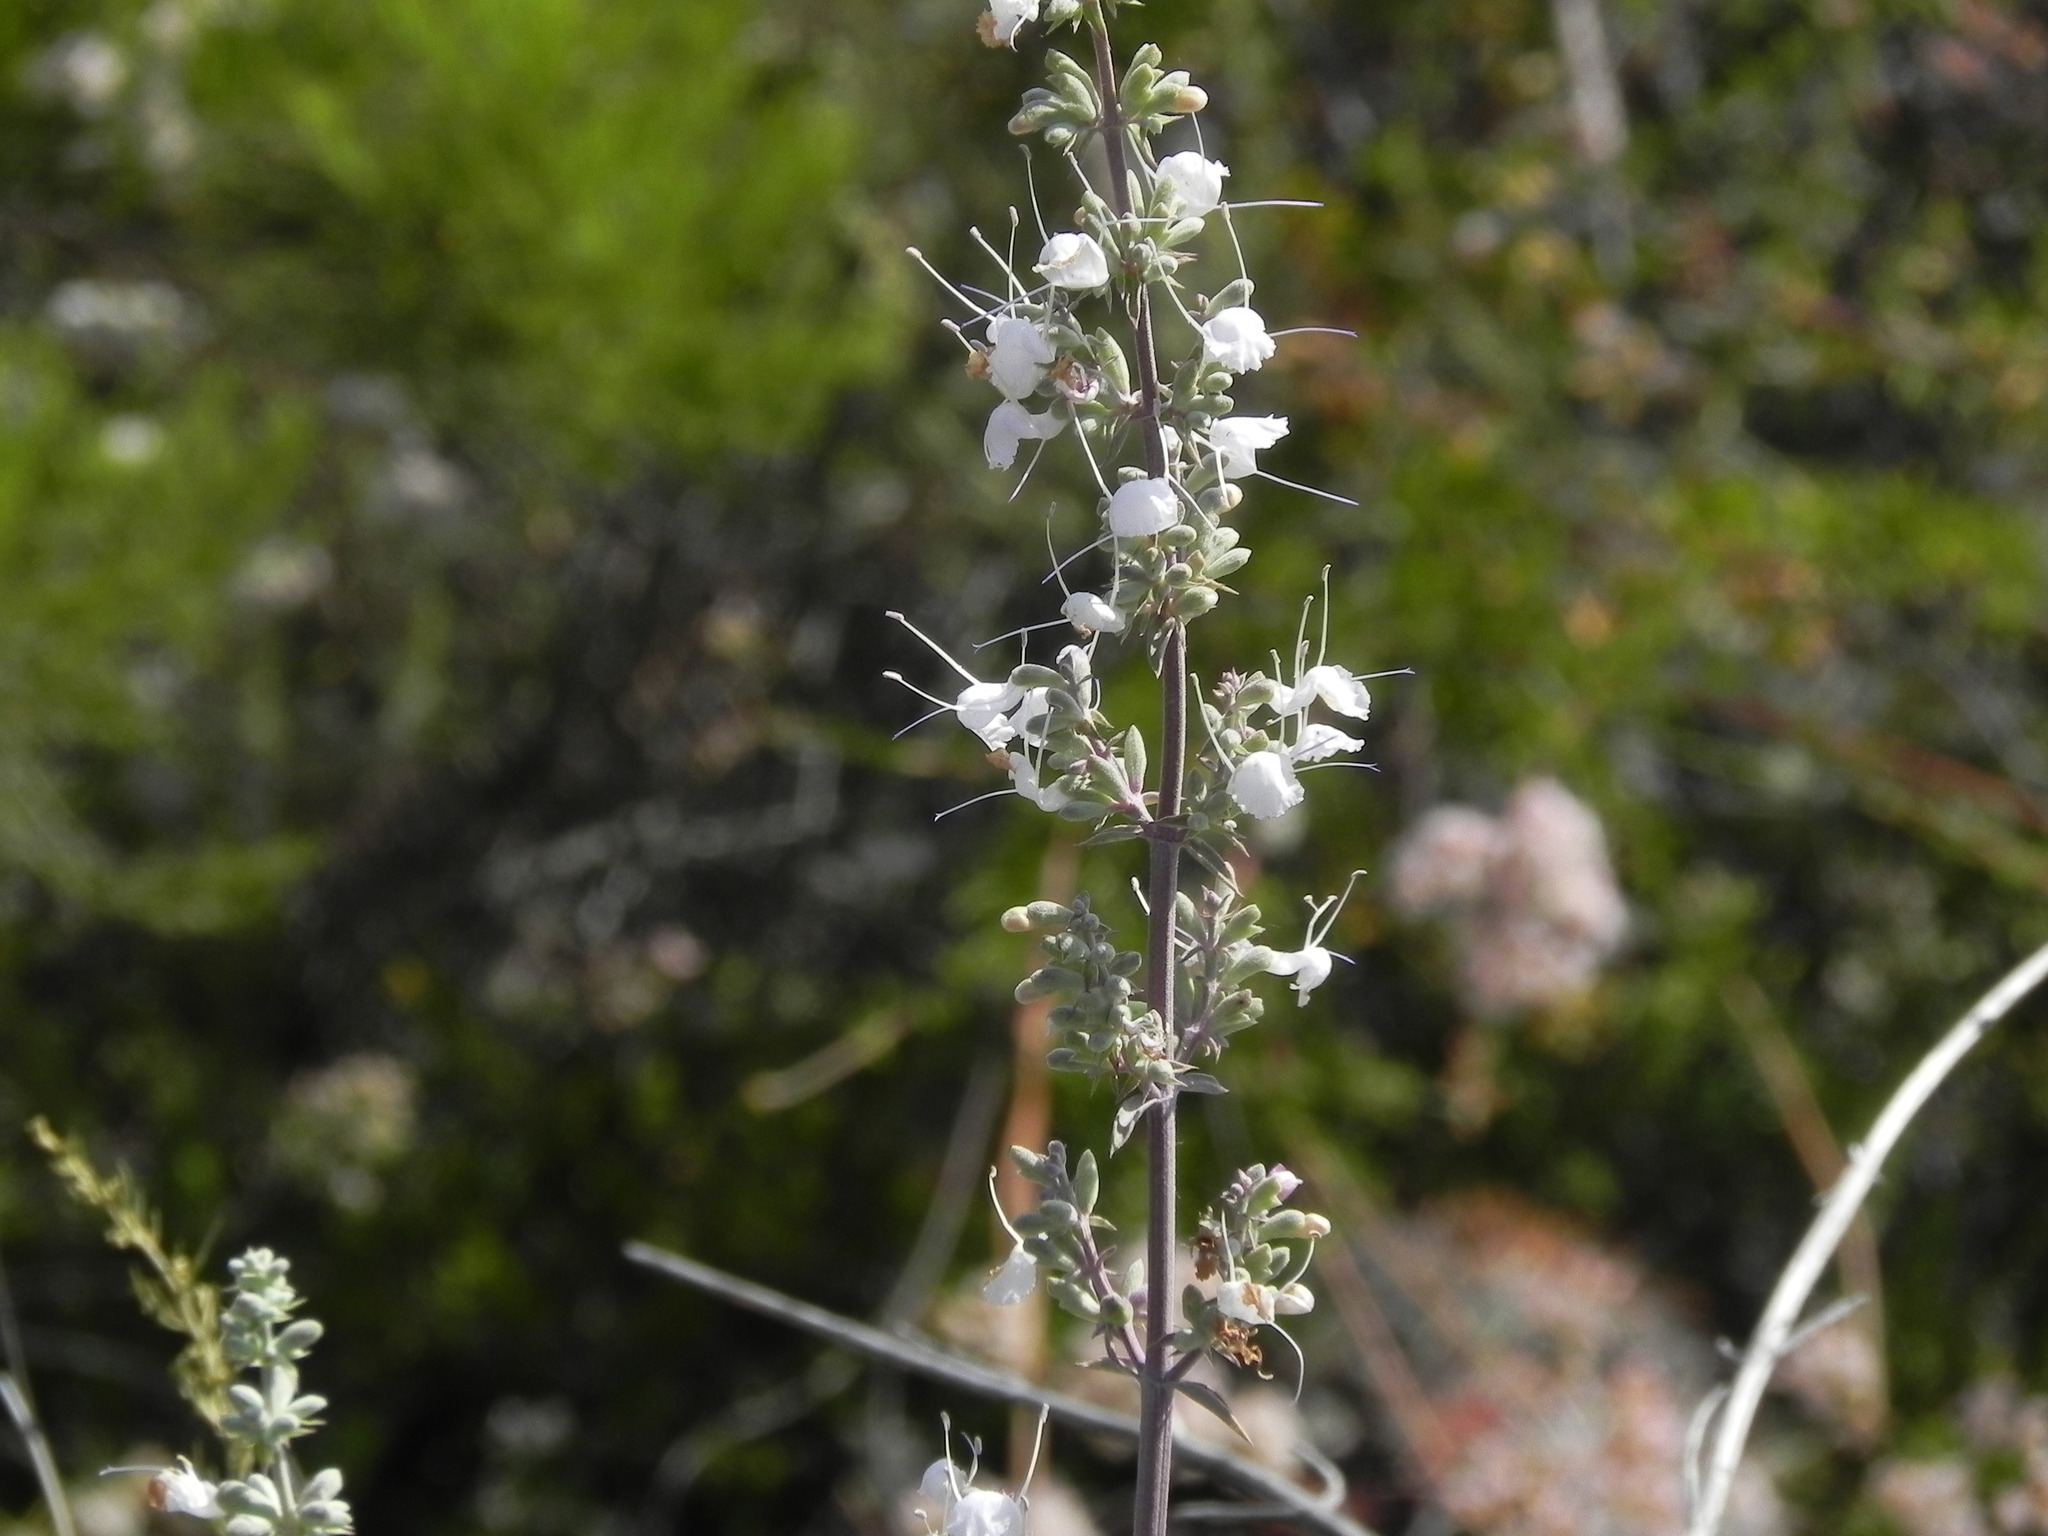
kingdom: Plantae
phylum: Tracheophyta
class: Magnoliopsida
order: Lamiales
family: Lamiaceae
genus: Salvia
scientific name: Salvia apiana
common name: White sage
